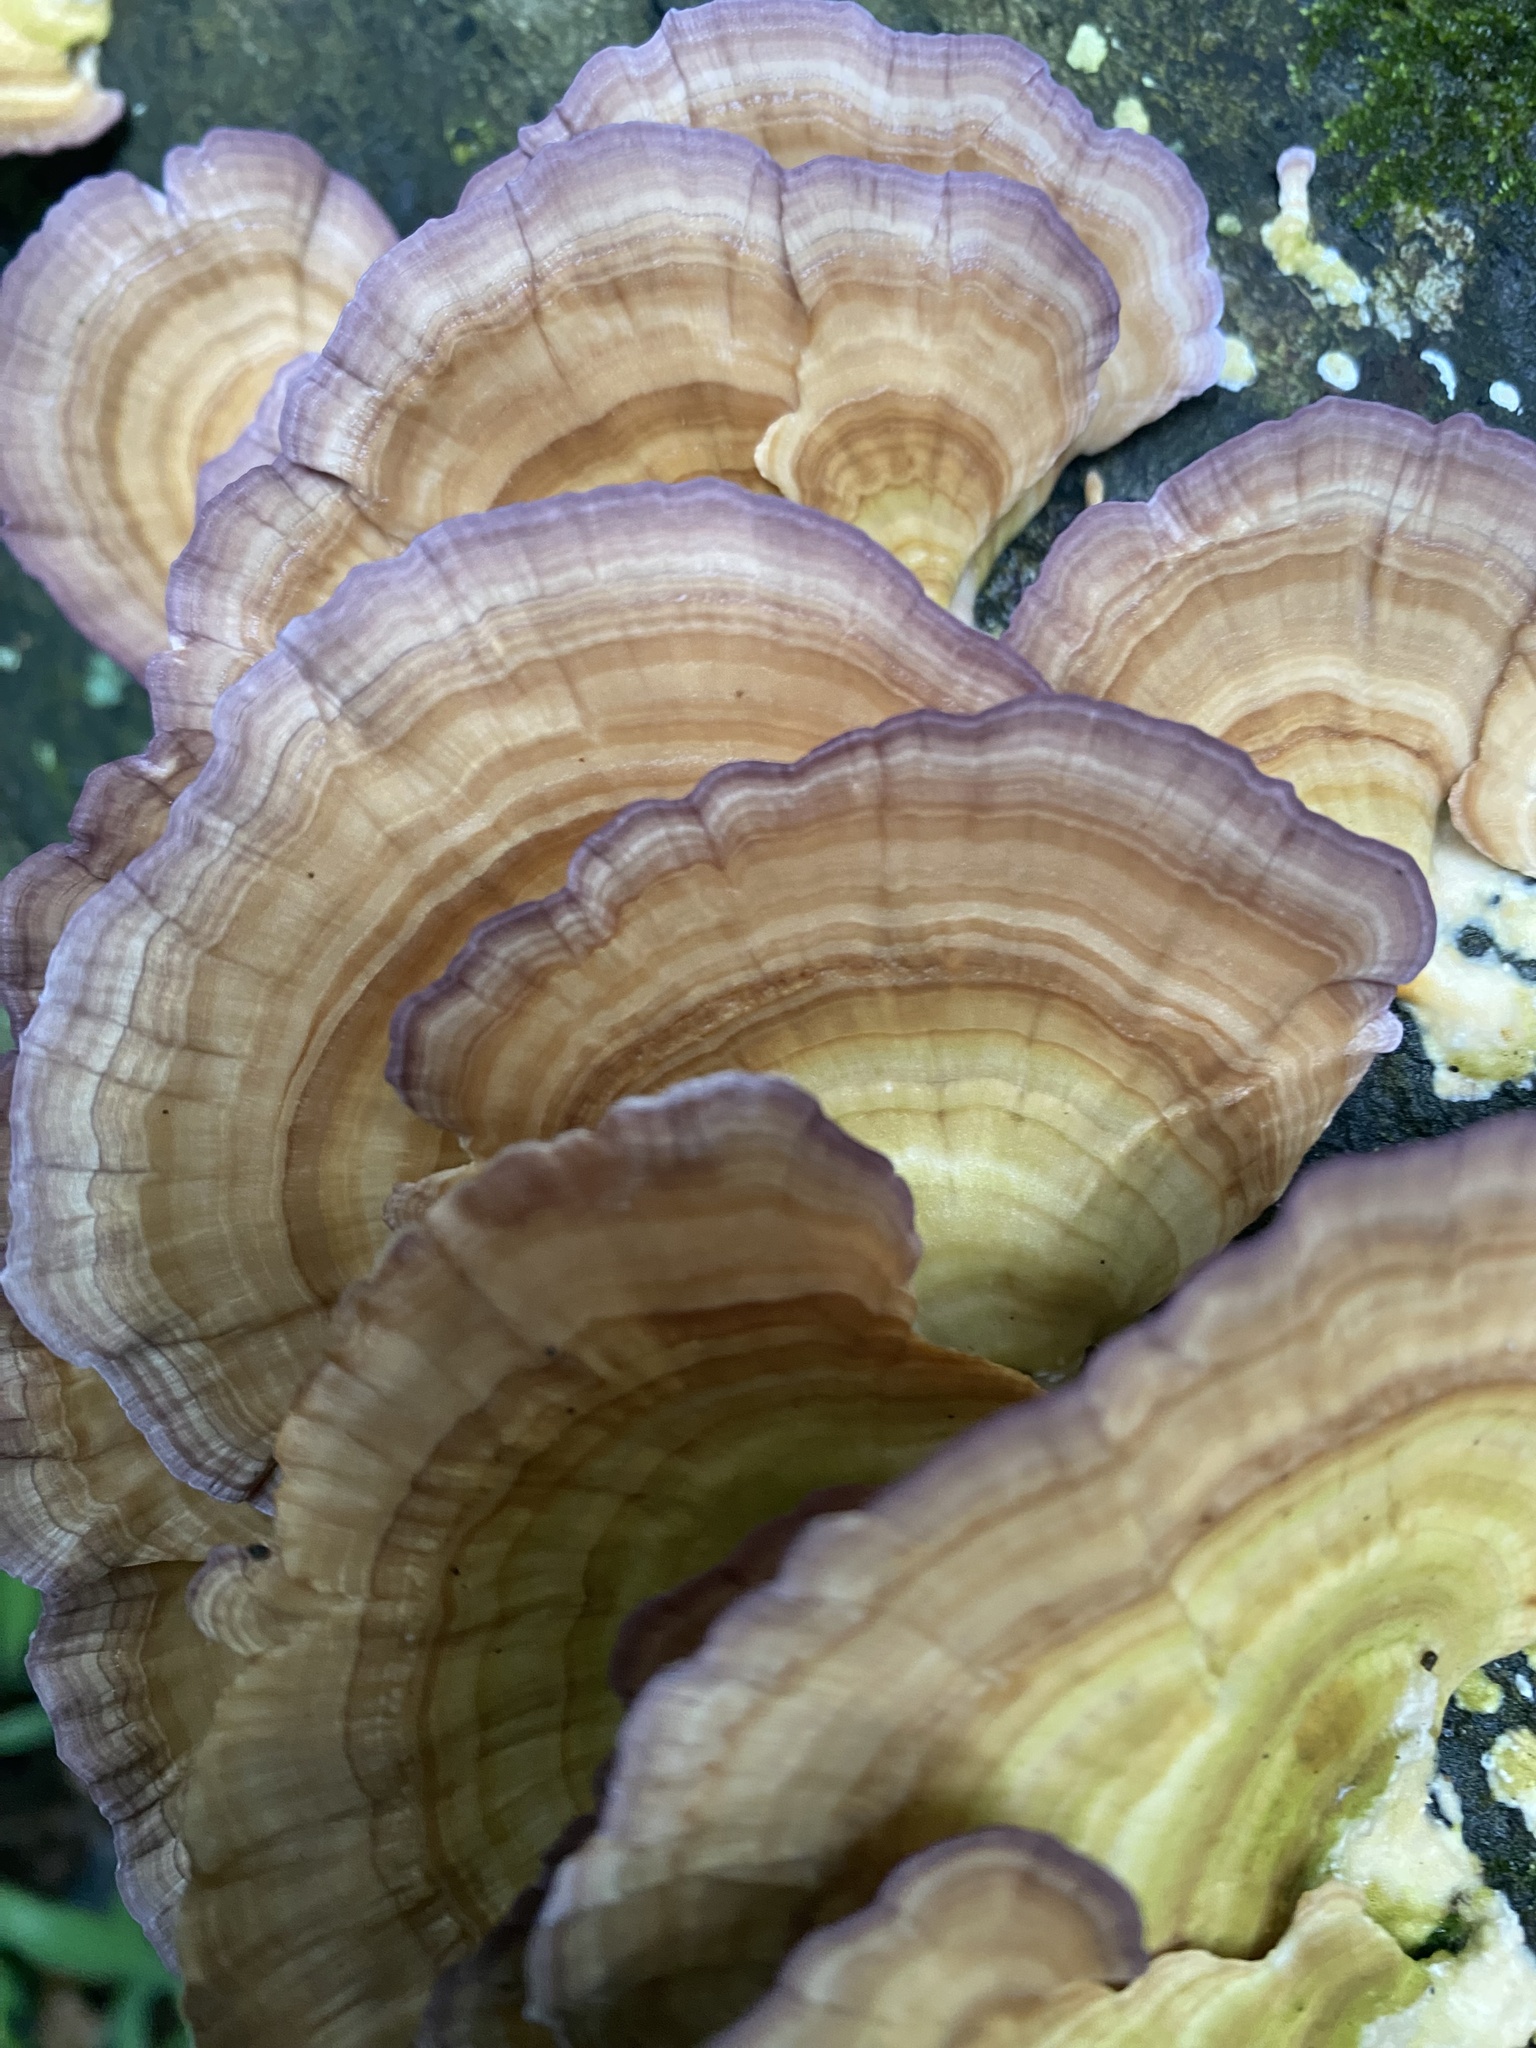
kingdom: Fungi
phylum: Basidiomycota
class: Agaricomycetes
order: Hymenochaetales
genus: Trichaptum
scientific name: Trichaptum biforme
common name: Violet-toothed polypore
